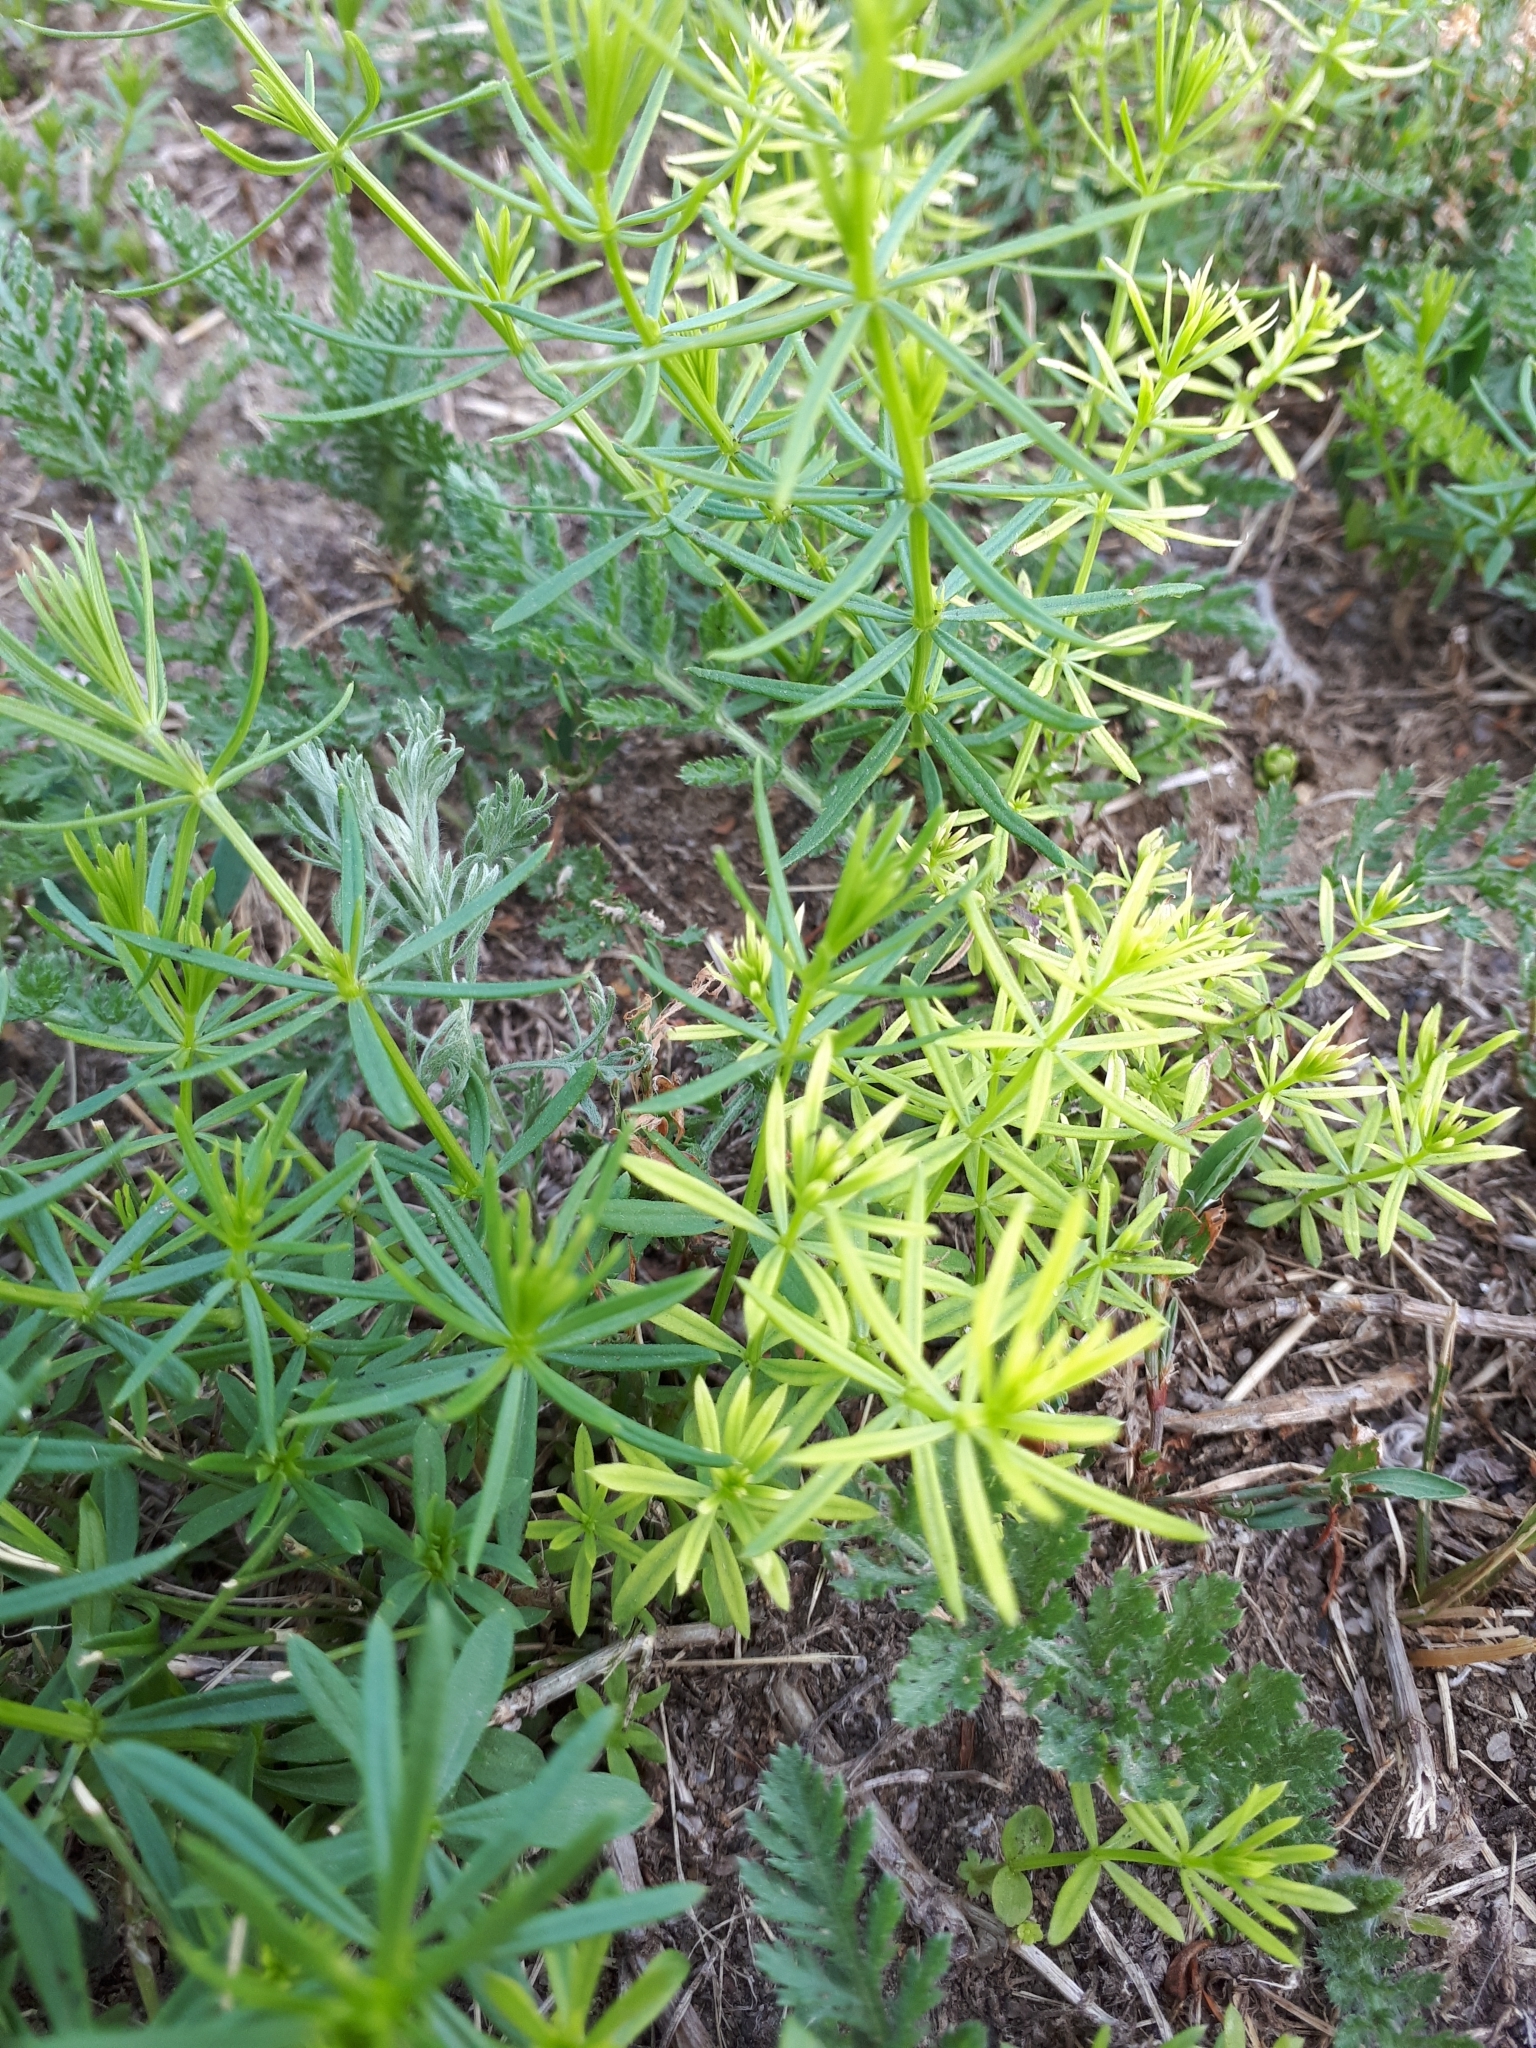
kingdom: Plantae
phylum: Tracheophyta
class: Magnoliopsida
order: Gentianales
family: Rubiaceae
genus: Galium
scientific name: Galium mollugo
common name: Hedge bedstraw
